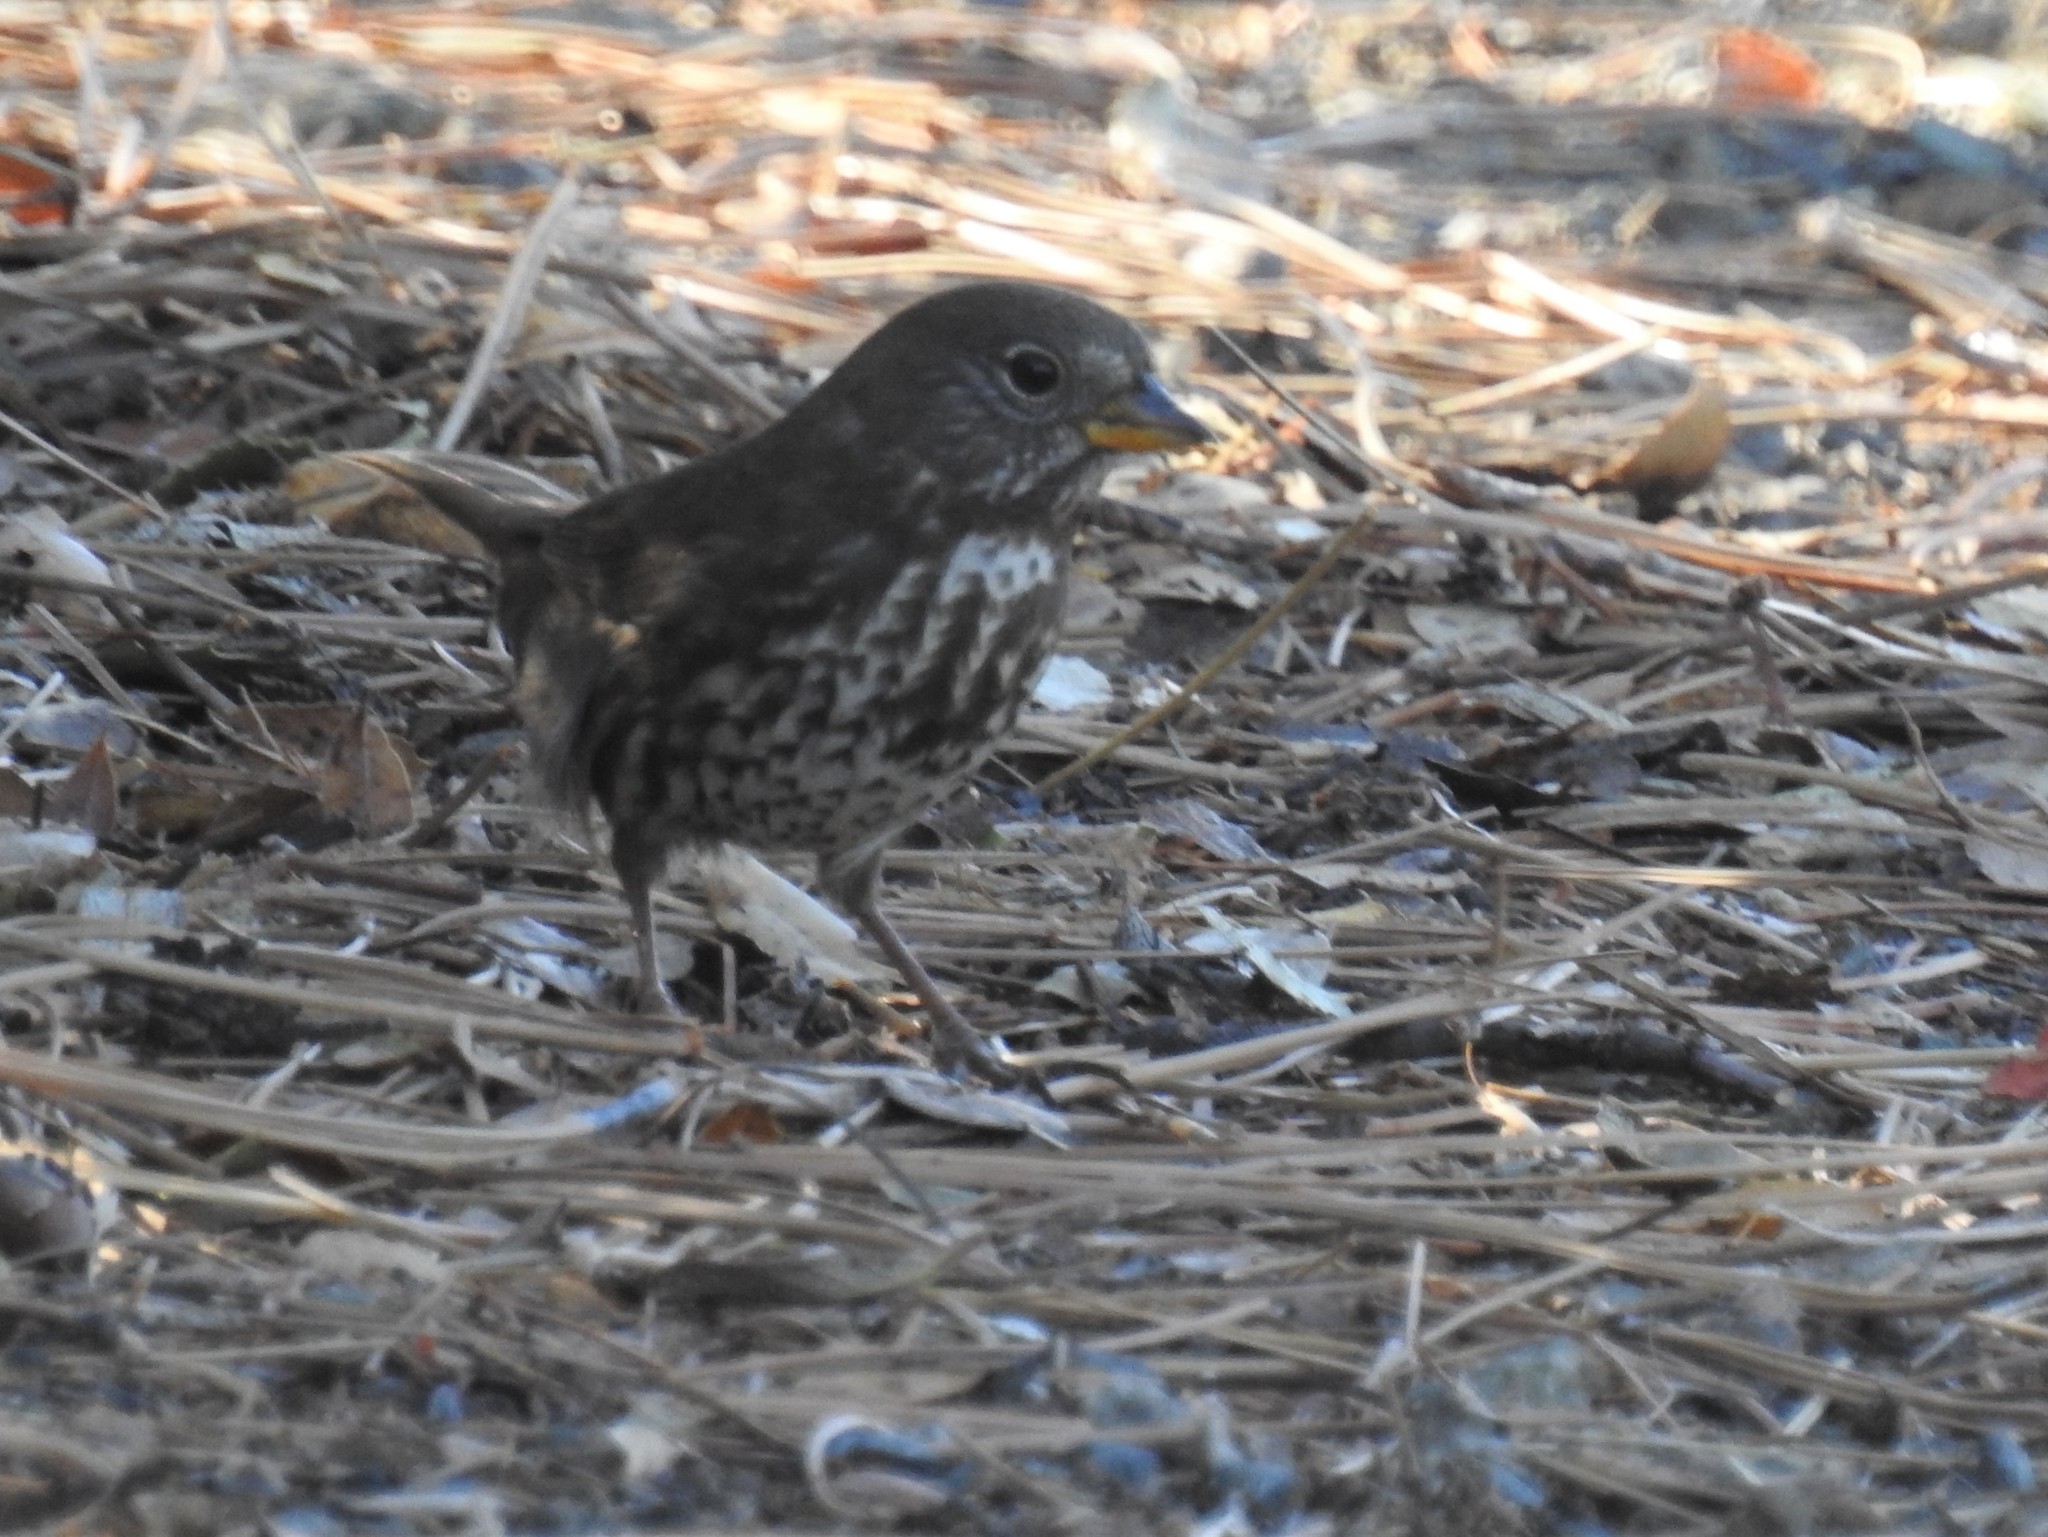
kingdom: Animalia
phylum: Chordata
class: Aves
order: Passeriformes
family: Passerellidae
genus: Passerella
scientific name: Passerella iliaca
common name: Fox sparrow
